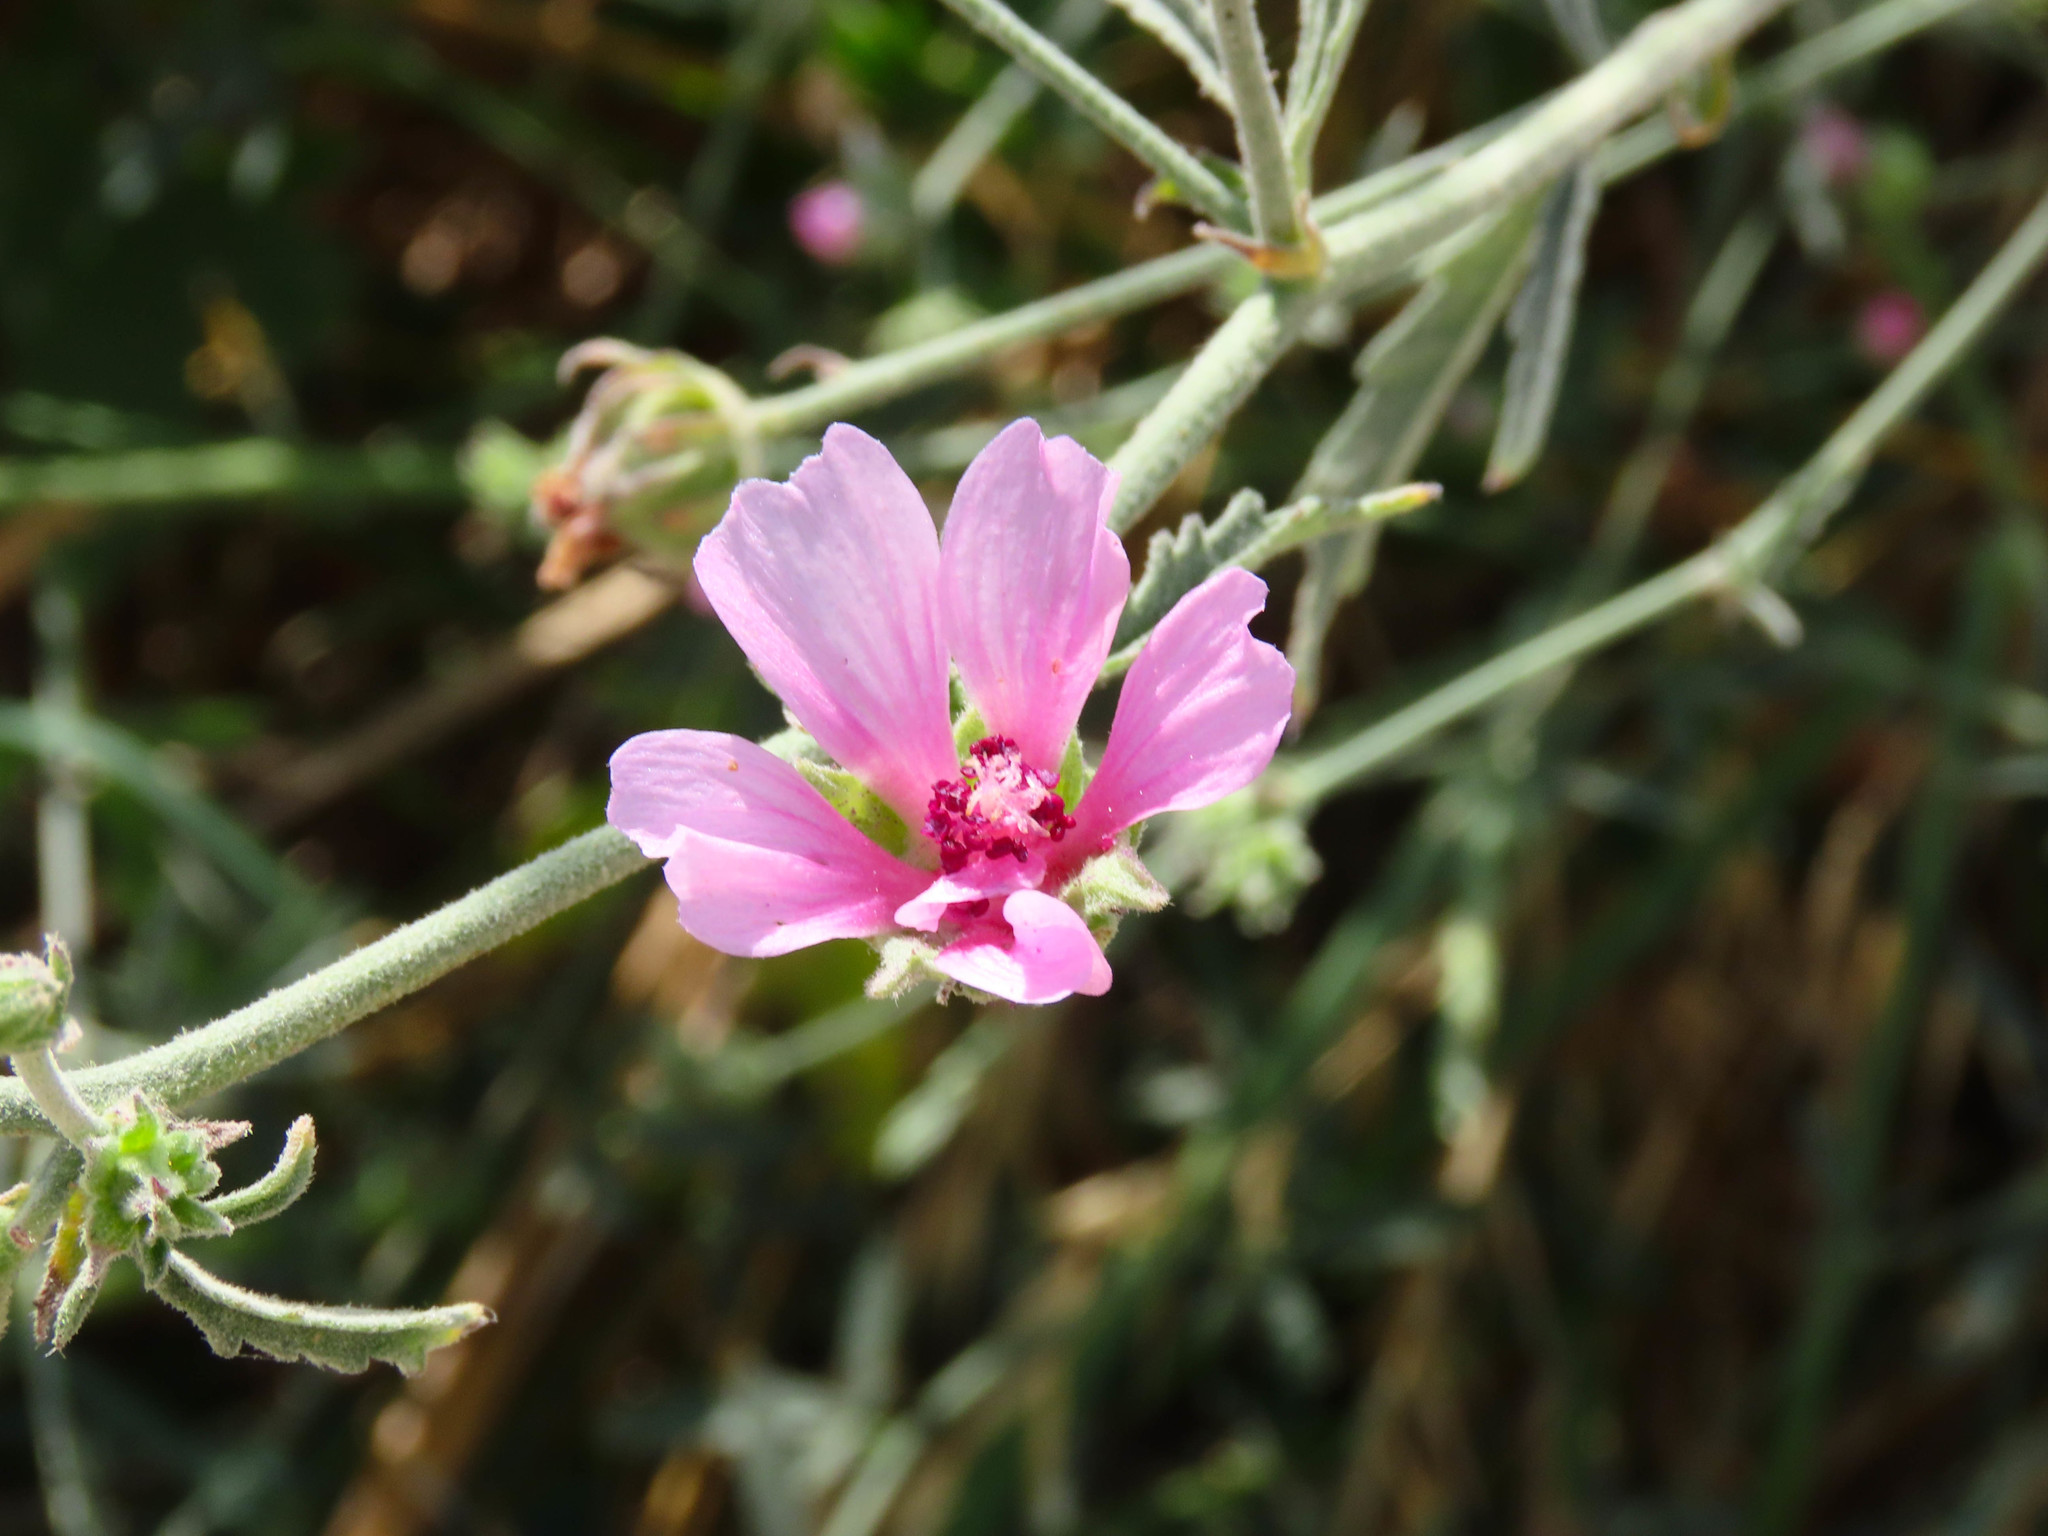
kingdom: Plantae
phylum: Tracheophyta
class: Magnoliopsida
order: Malvales
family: Malvaceae
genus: Althaea
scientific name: Althaea cannabina
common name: Palm-leaf marshmallow
